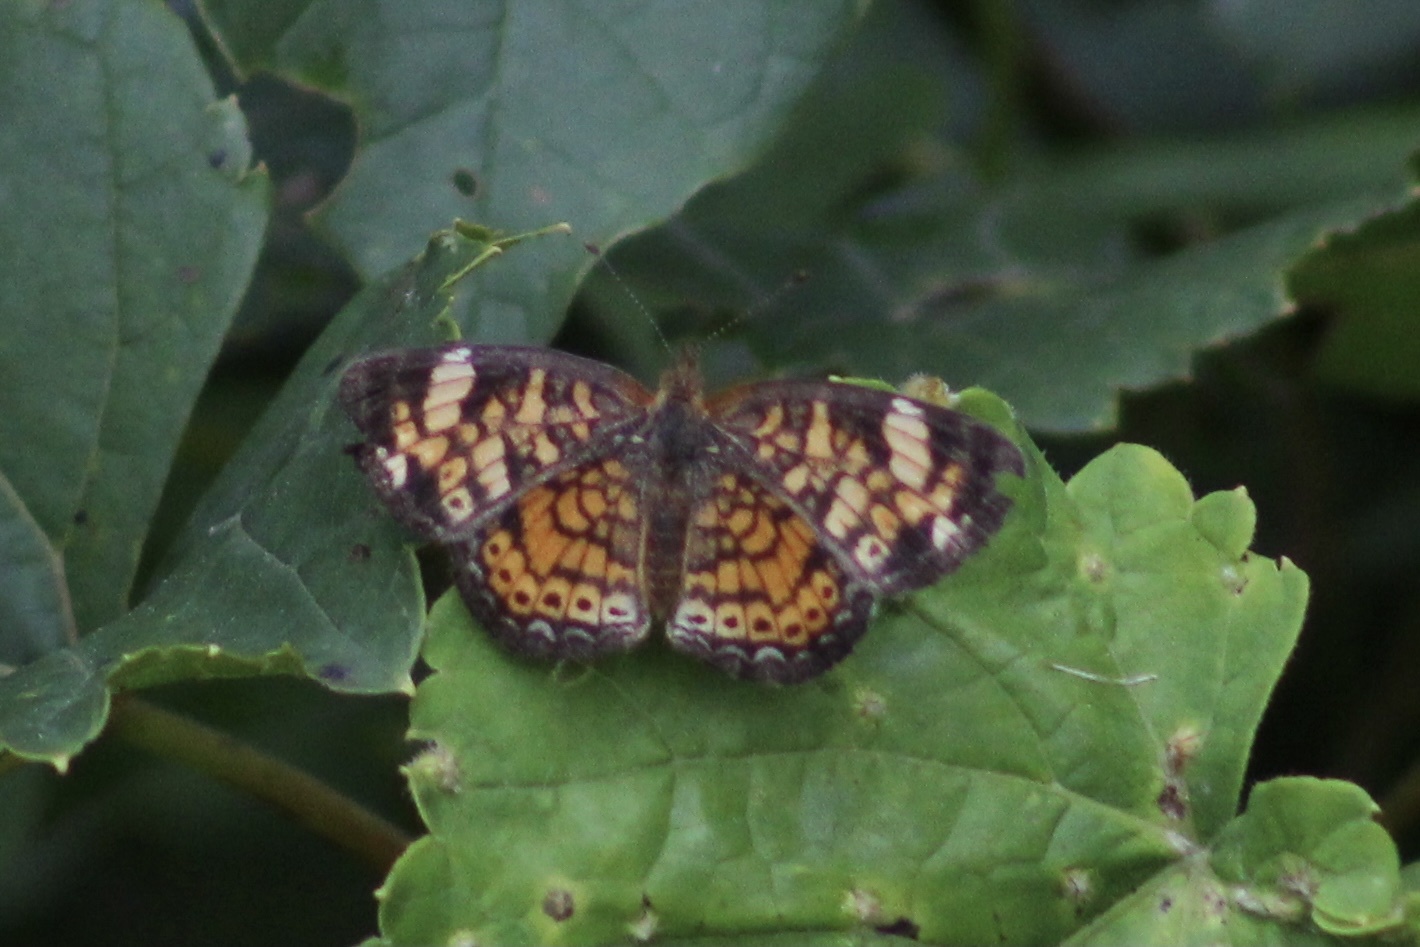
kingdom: Animalia
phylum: Arthropoda
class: Insecta
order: Lepidoptera
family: Nymphalidae
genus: Phyciodes
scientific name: Phyciodes tharos
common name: Pearl crescent
